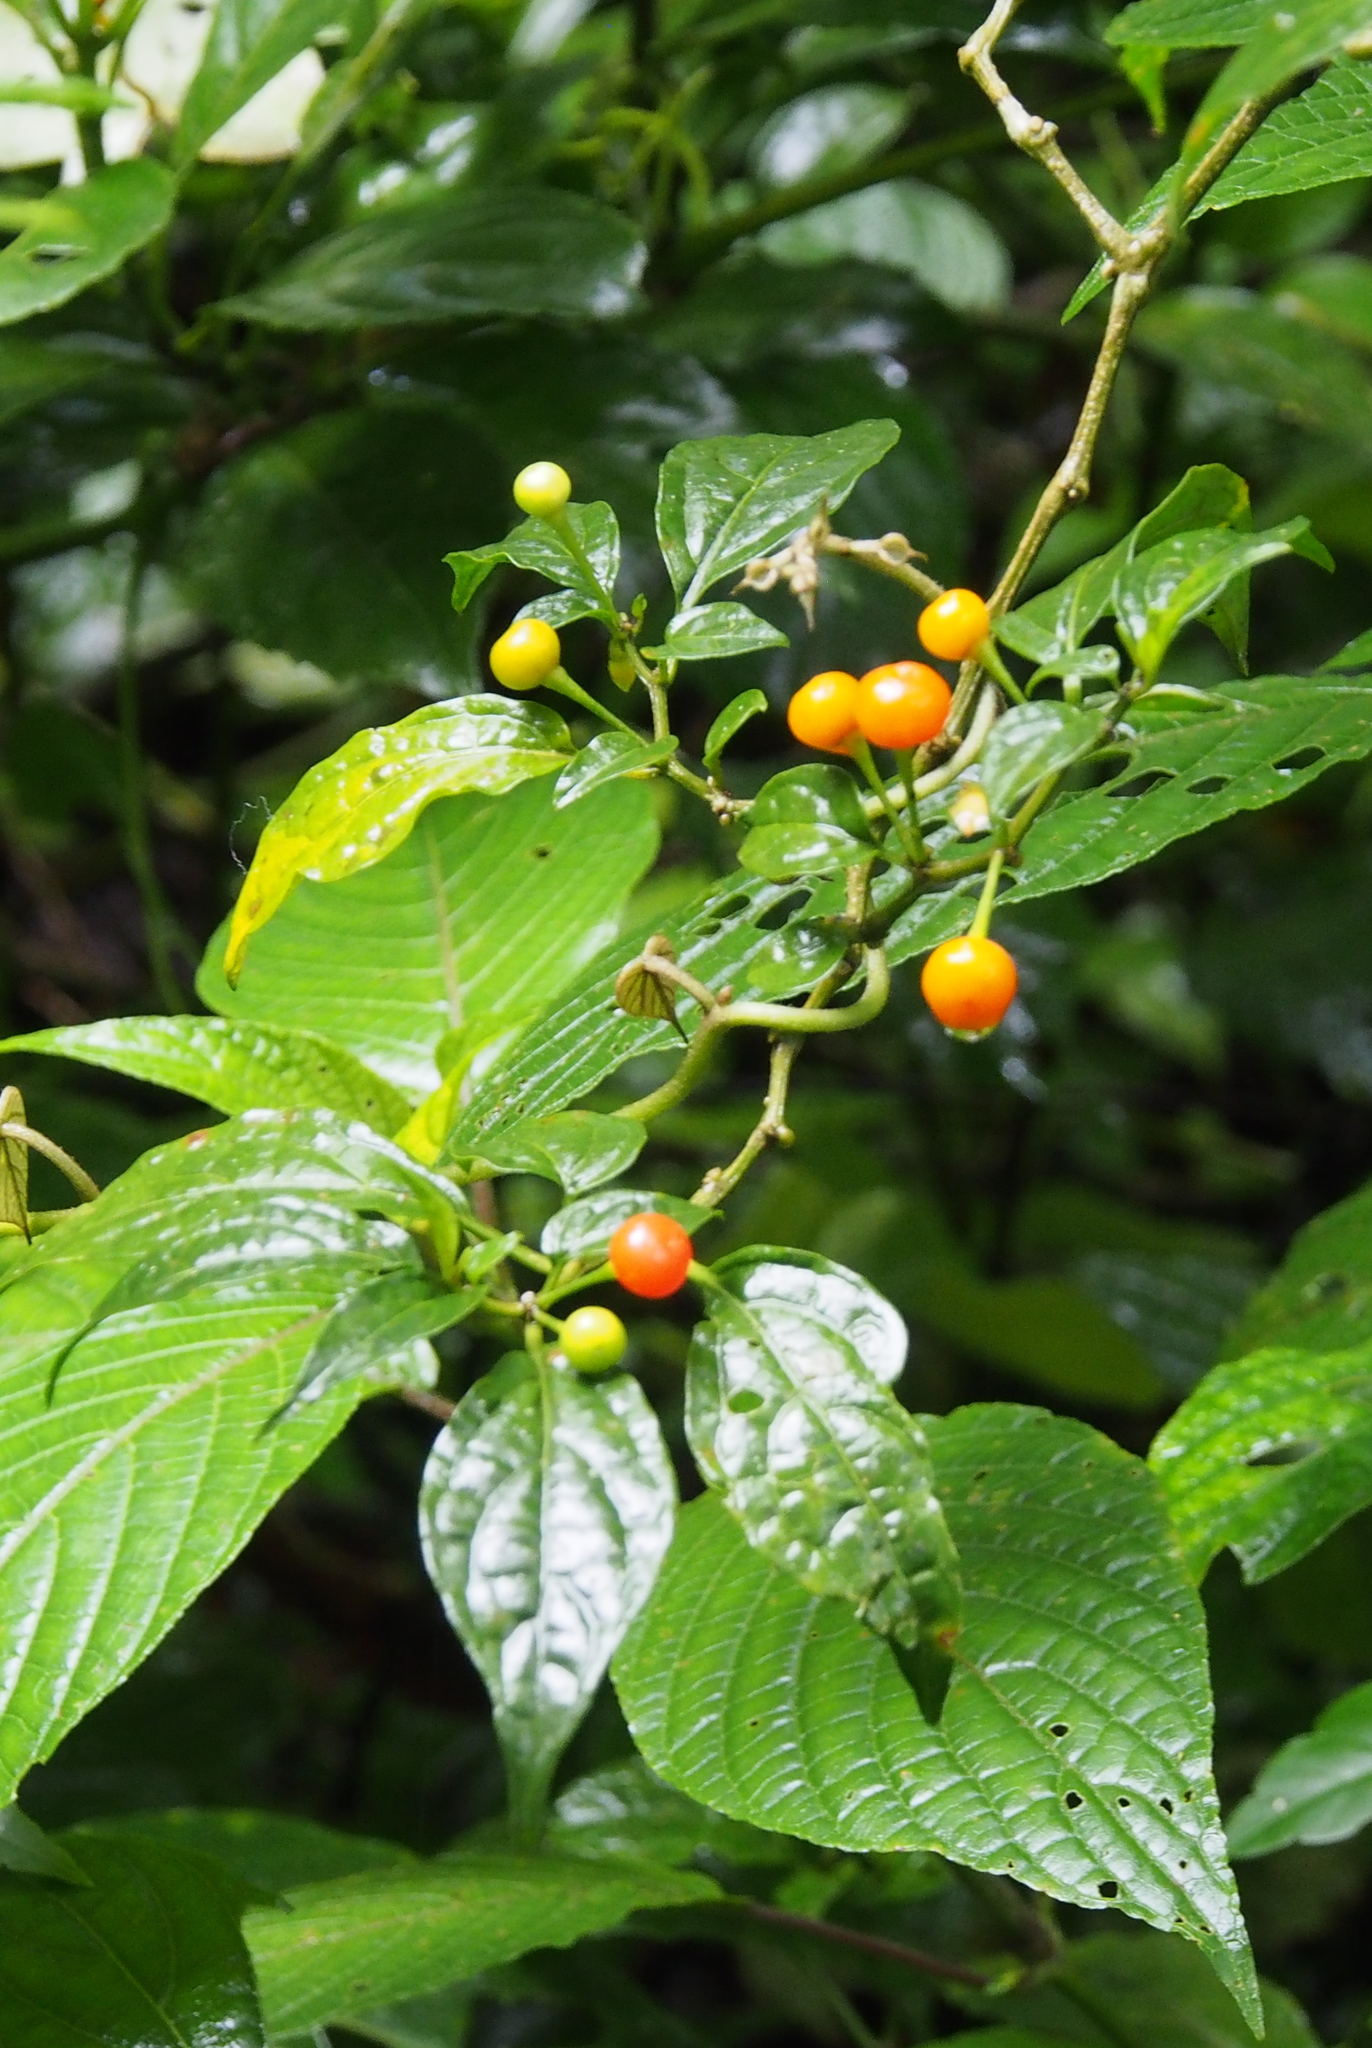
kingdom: Plantae
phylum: Tracheophyta
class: Magnoliopsida
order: Solanales
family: Solanaceae
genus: Witheringia
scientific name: Witheringia meiantha
